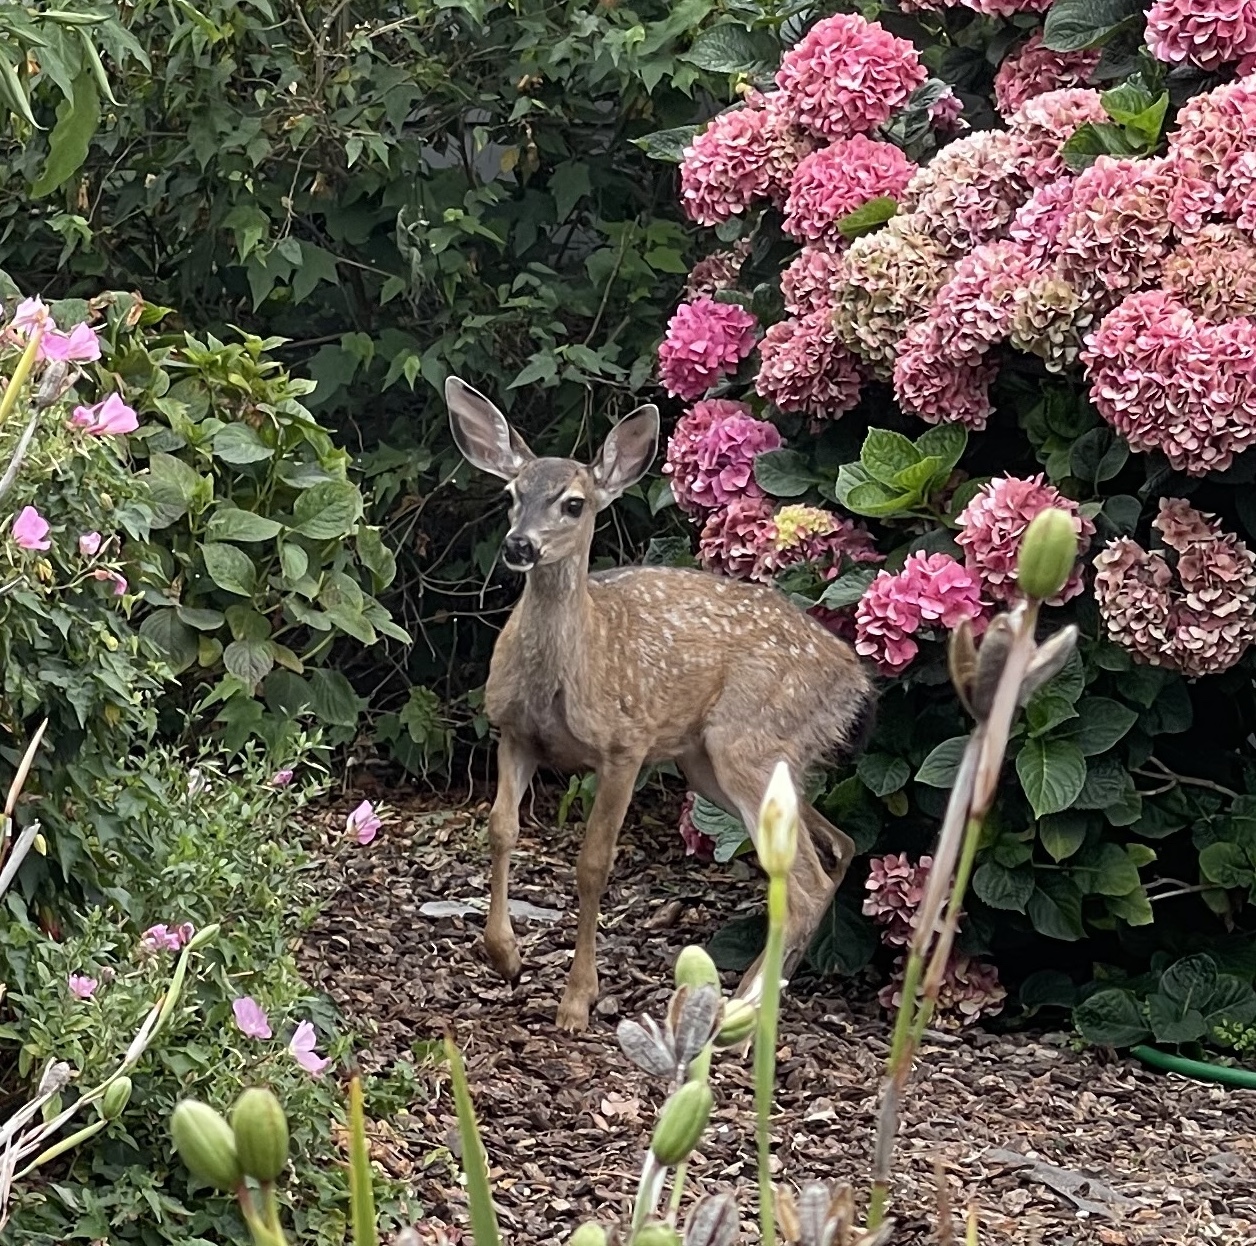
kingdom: Animalia
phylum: Chordata
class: Mammalia
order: Artiodactyla
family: Cervidae
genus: Odocoileus
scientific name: Odocoileus hemionus
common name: Mule deer
